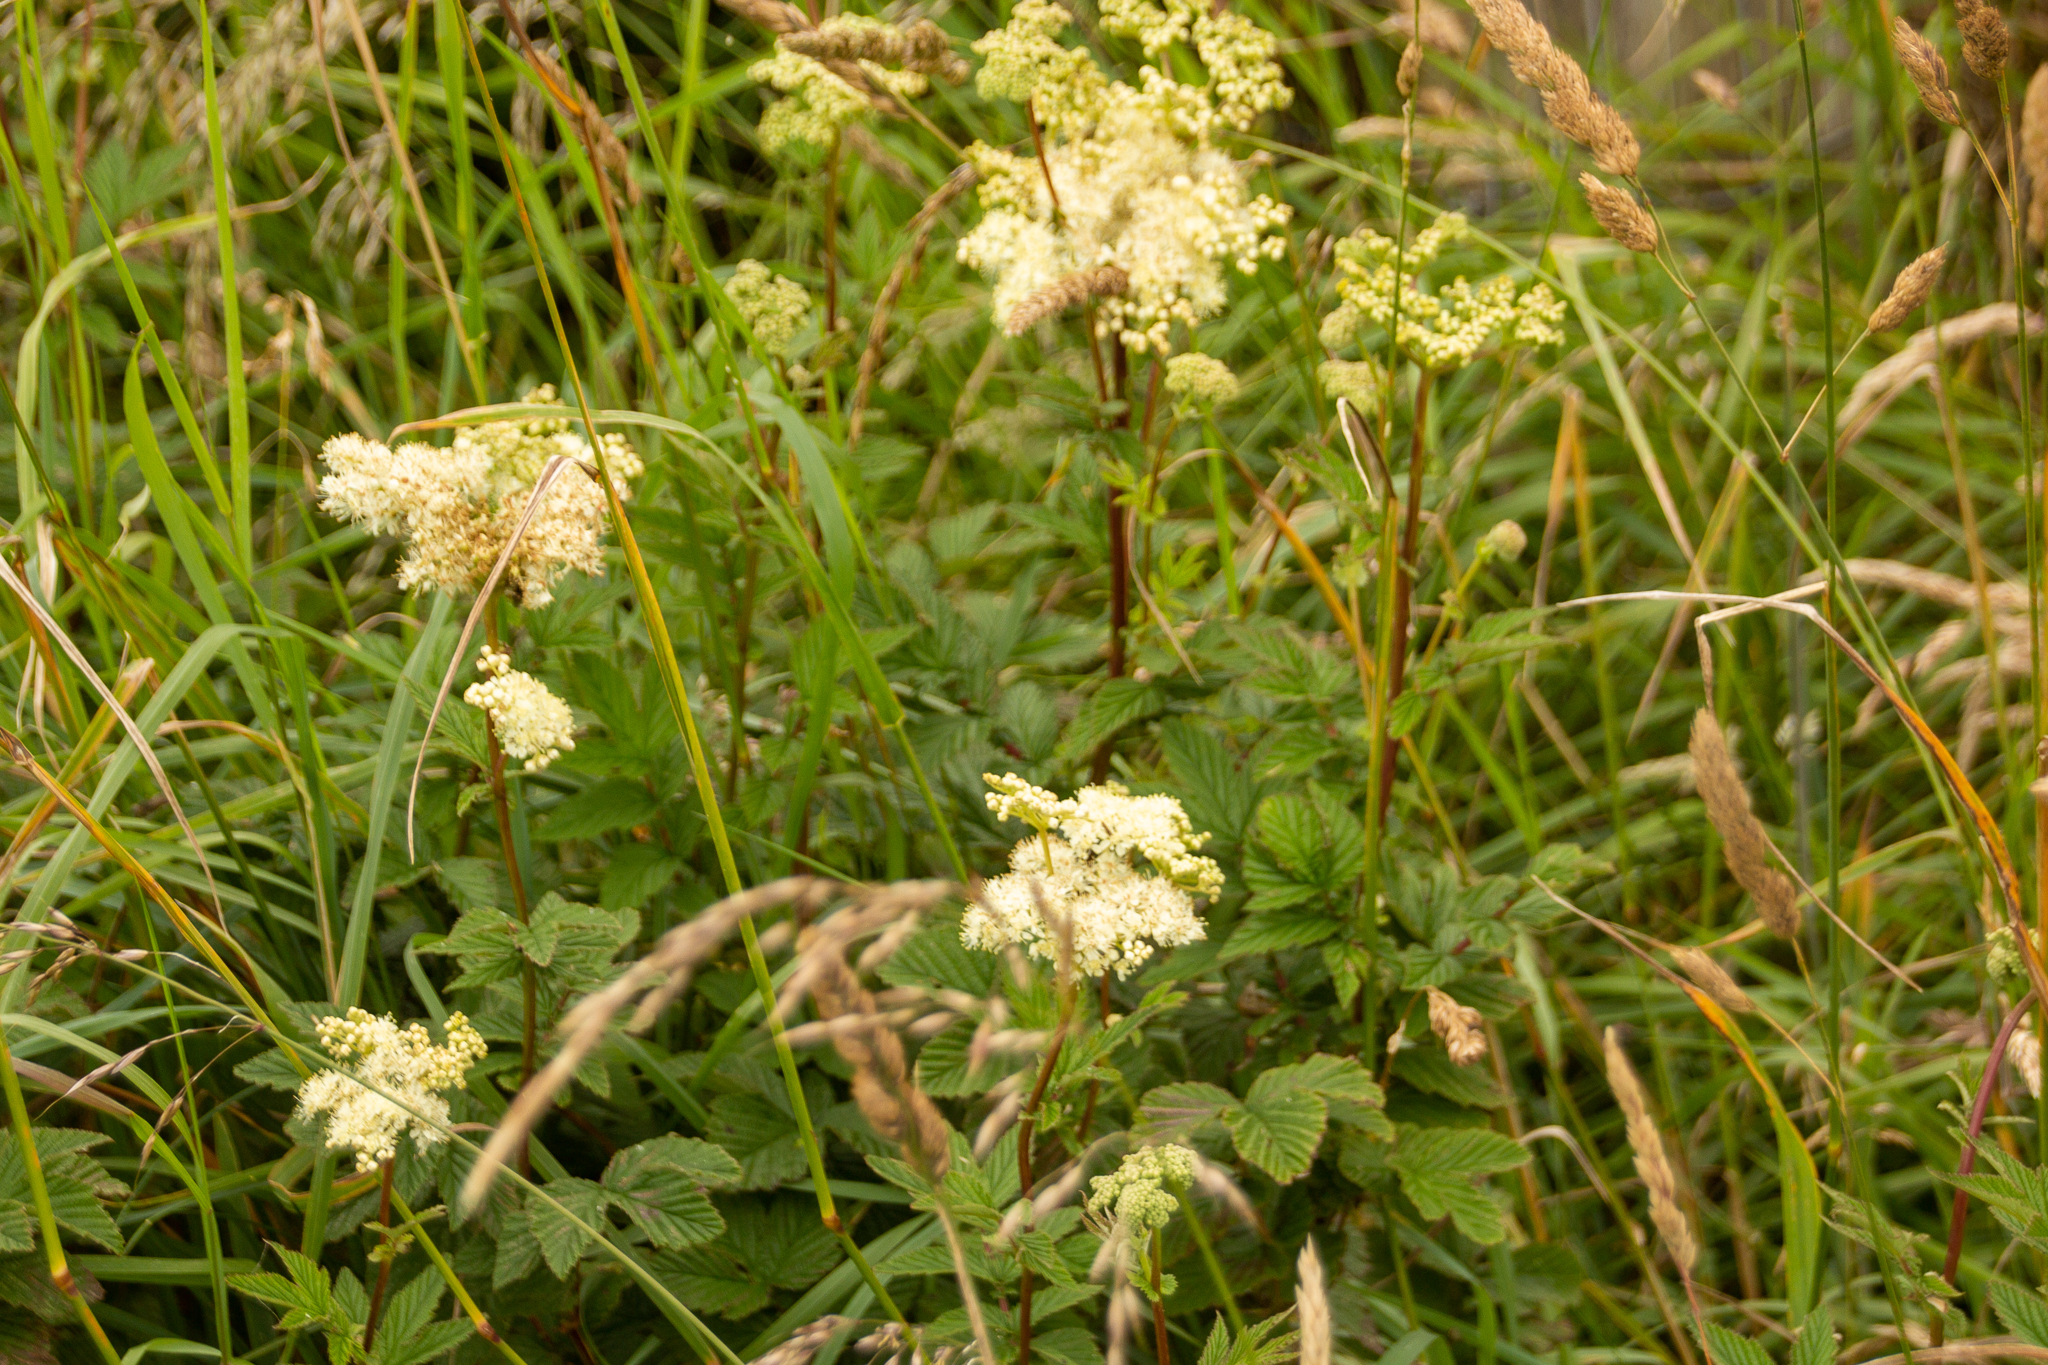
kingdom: Plantae
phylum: Tracheophyta
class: Magnoliopsida
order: Rosales
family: Rosaceae
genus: Filipendula
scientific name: Filipendula ulmaria
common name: Meadowsweet
